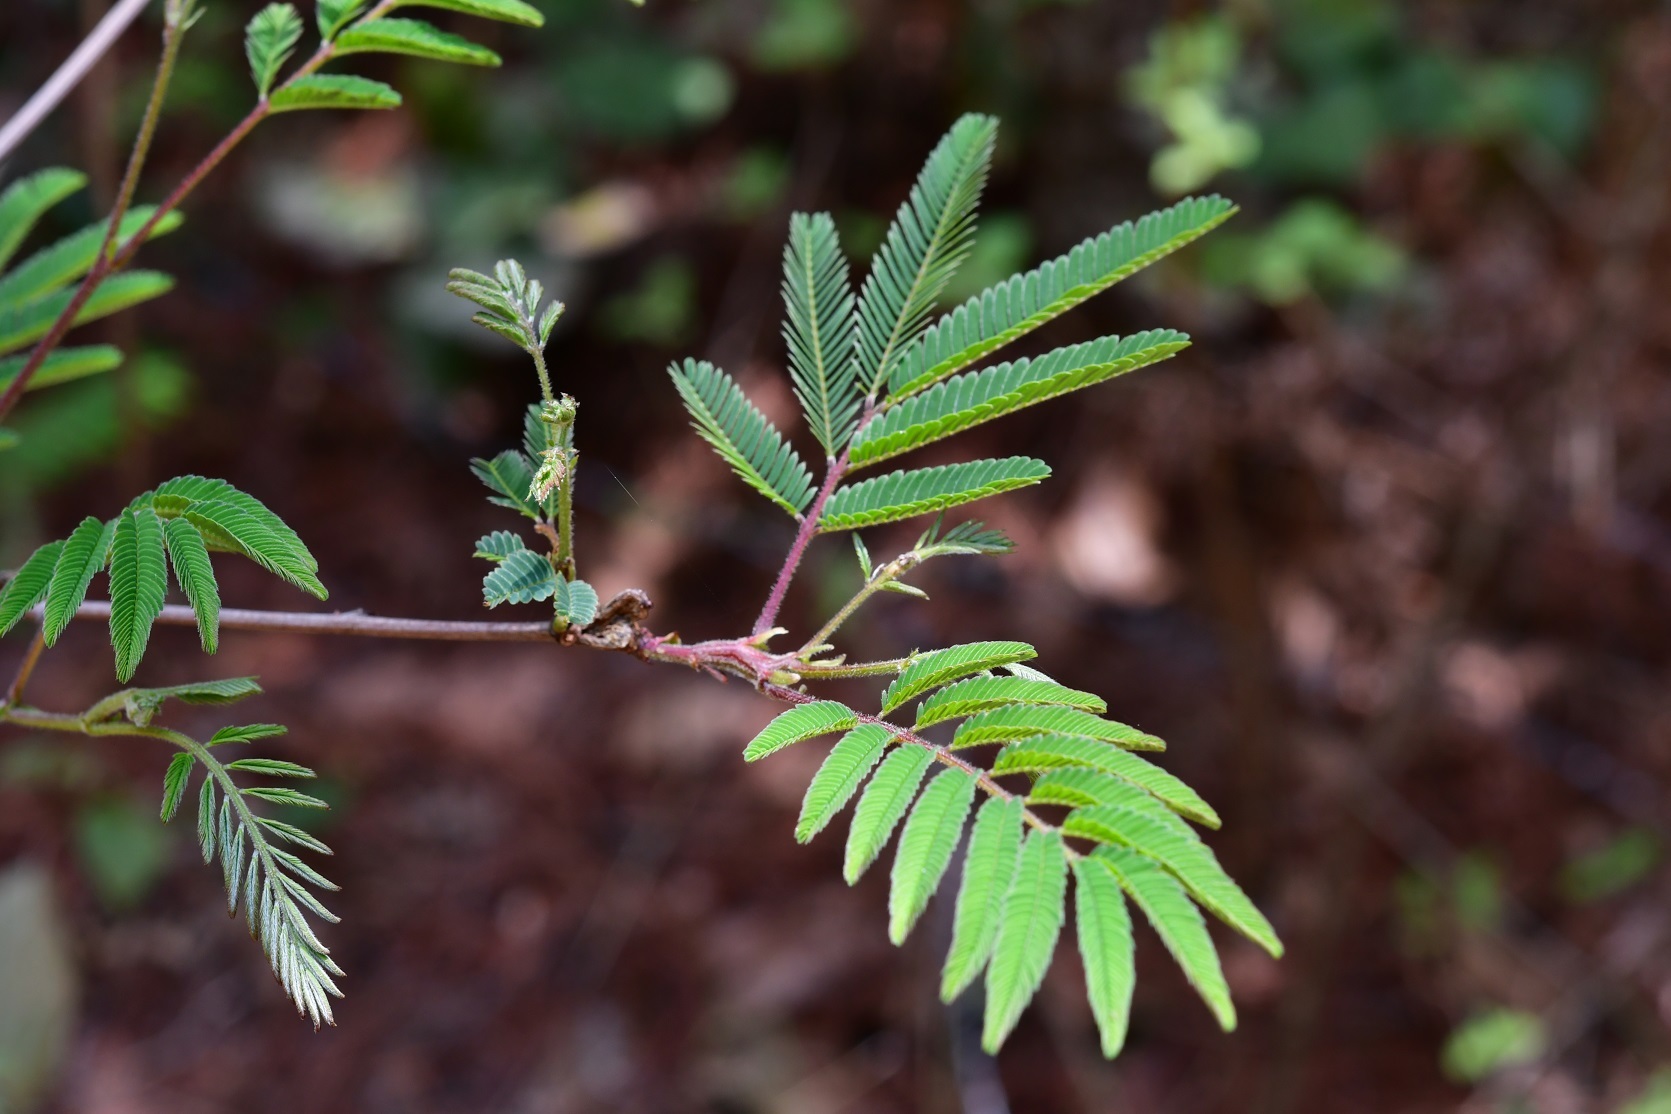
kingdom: Plantae
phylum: Tracheophyta
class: Magnoliopsida
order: Fabales
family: Fabaceae
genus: Acaciella
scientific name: Acaciella angustissima
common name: Prairie acacia
